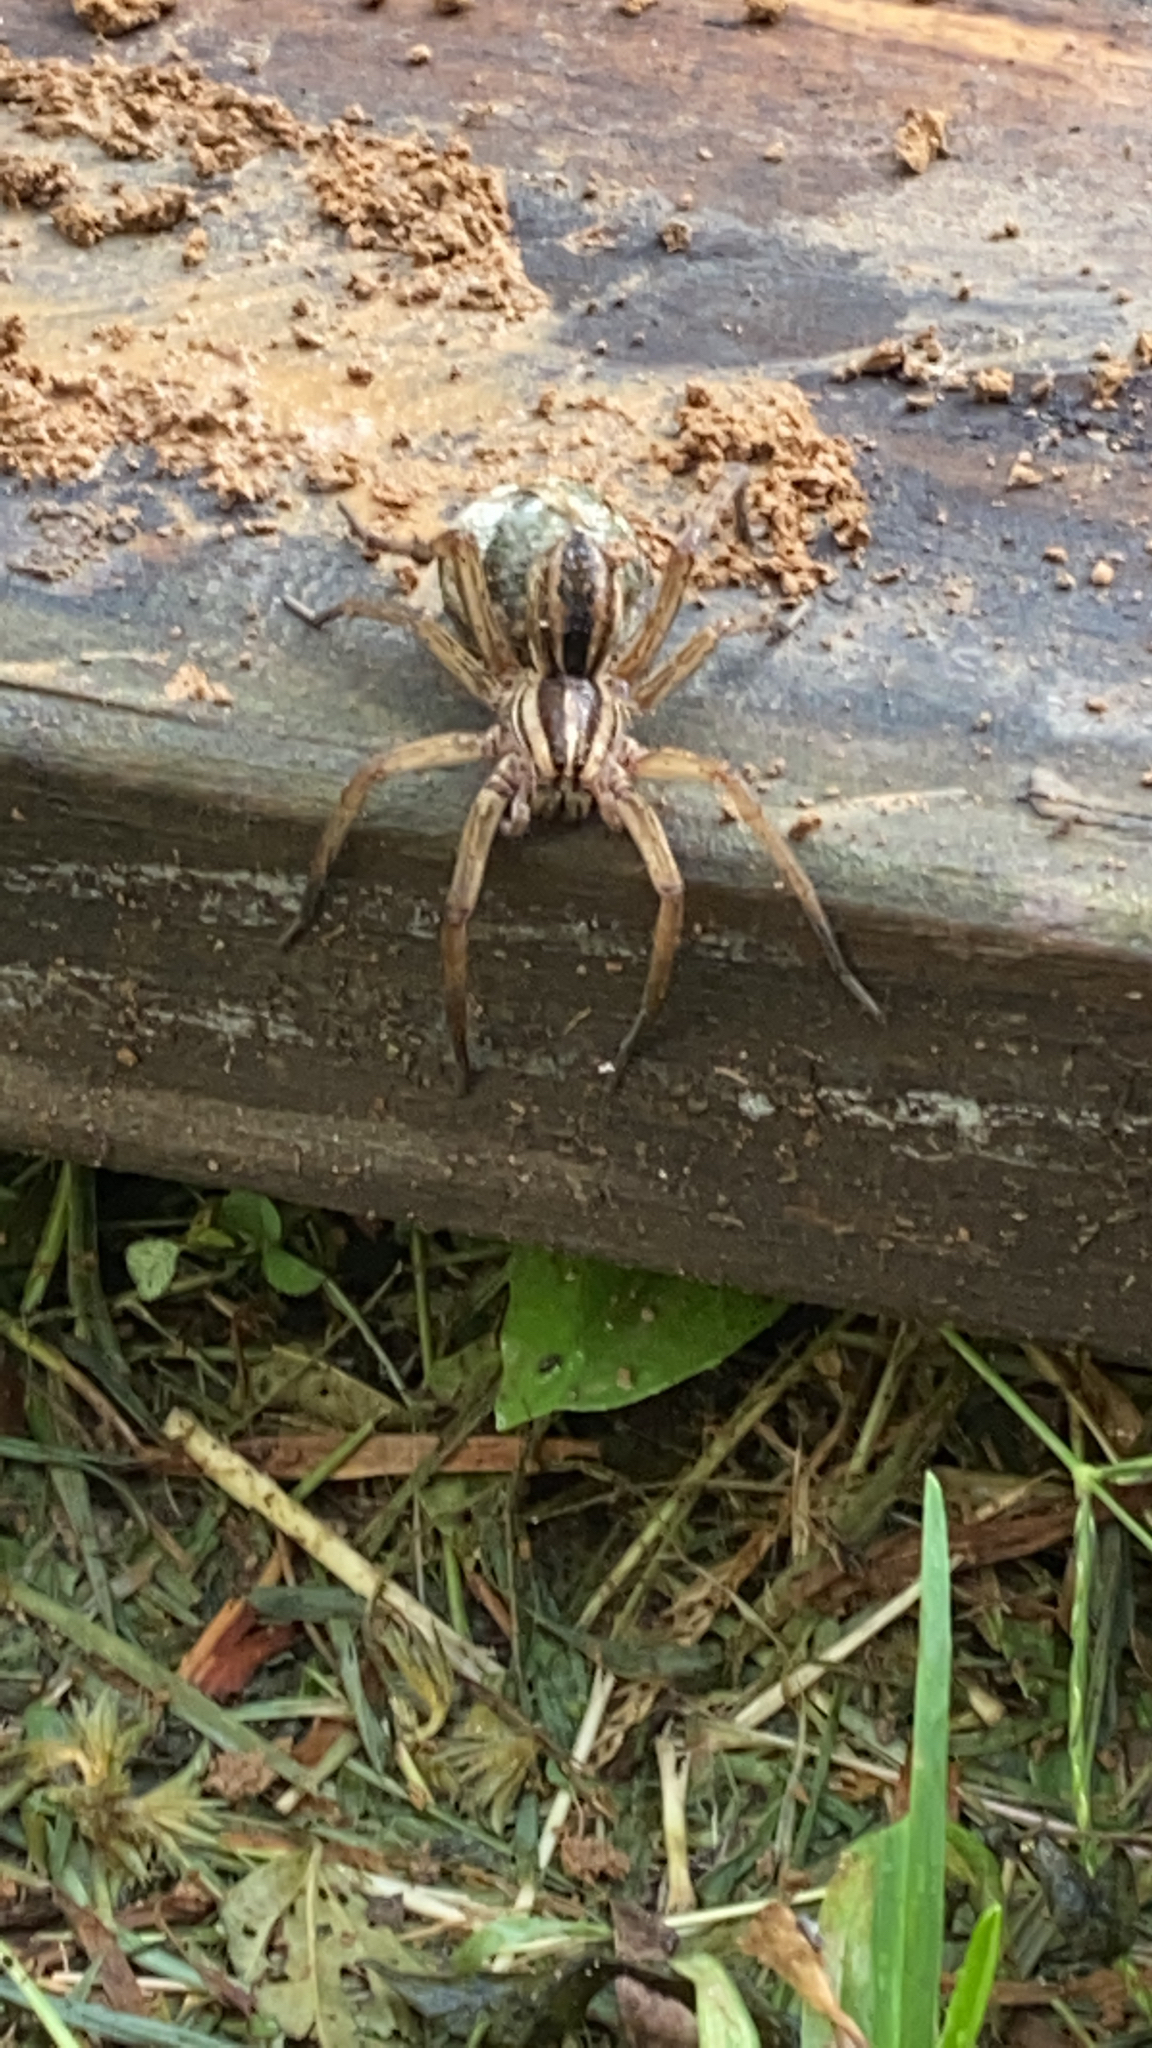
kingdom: Animalia
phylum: Arthropoda
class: Arachnida
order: Araneae
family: Lycosidae
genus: Rabidosa
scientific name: Rabidosa rabida
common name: Rabid wolf spider
